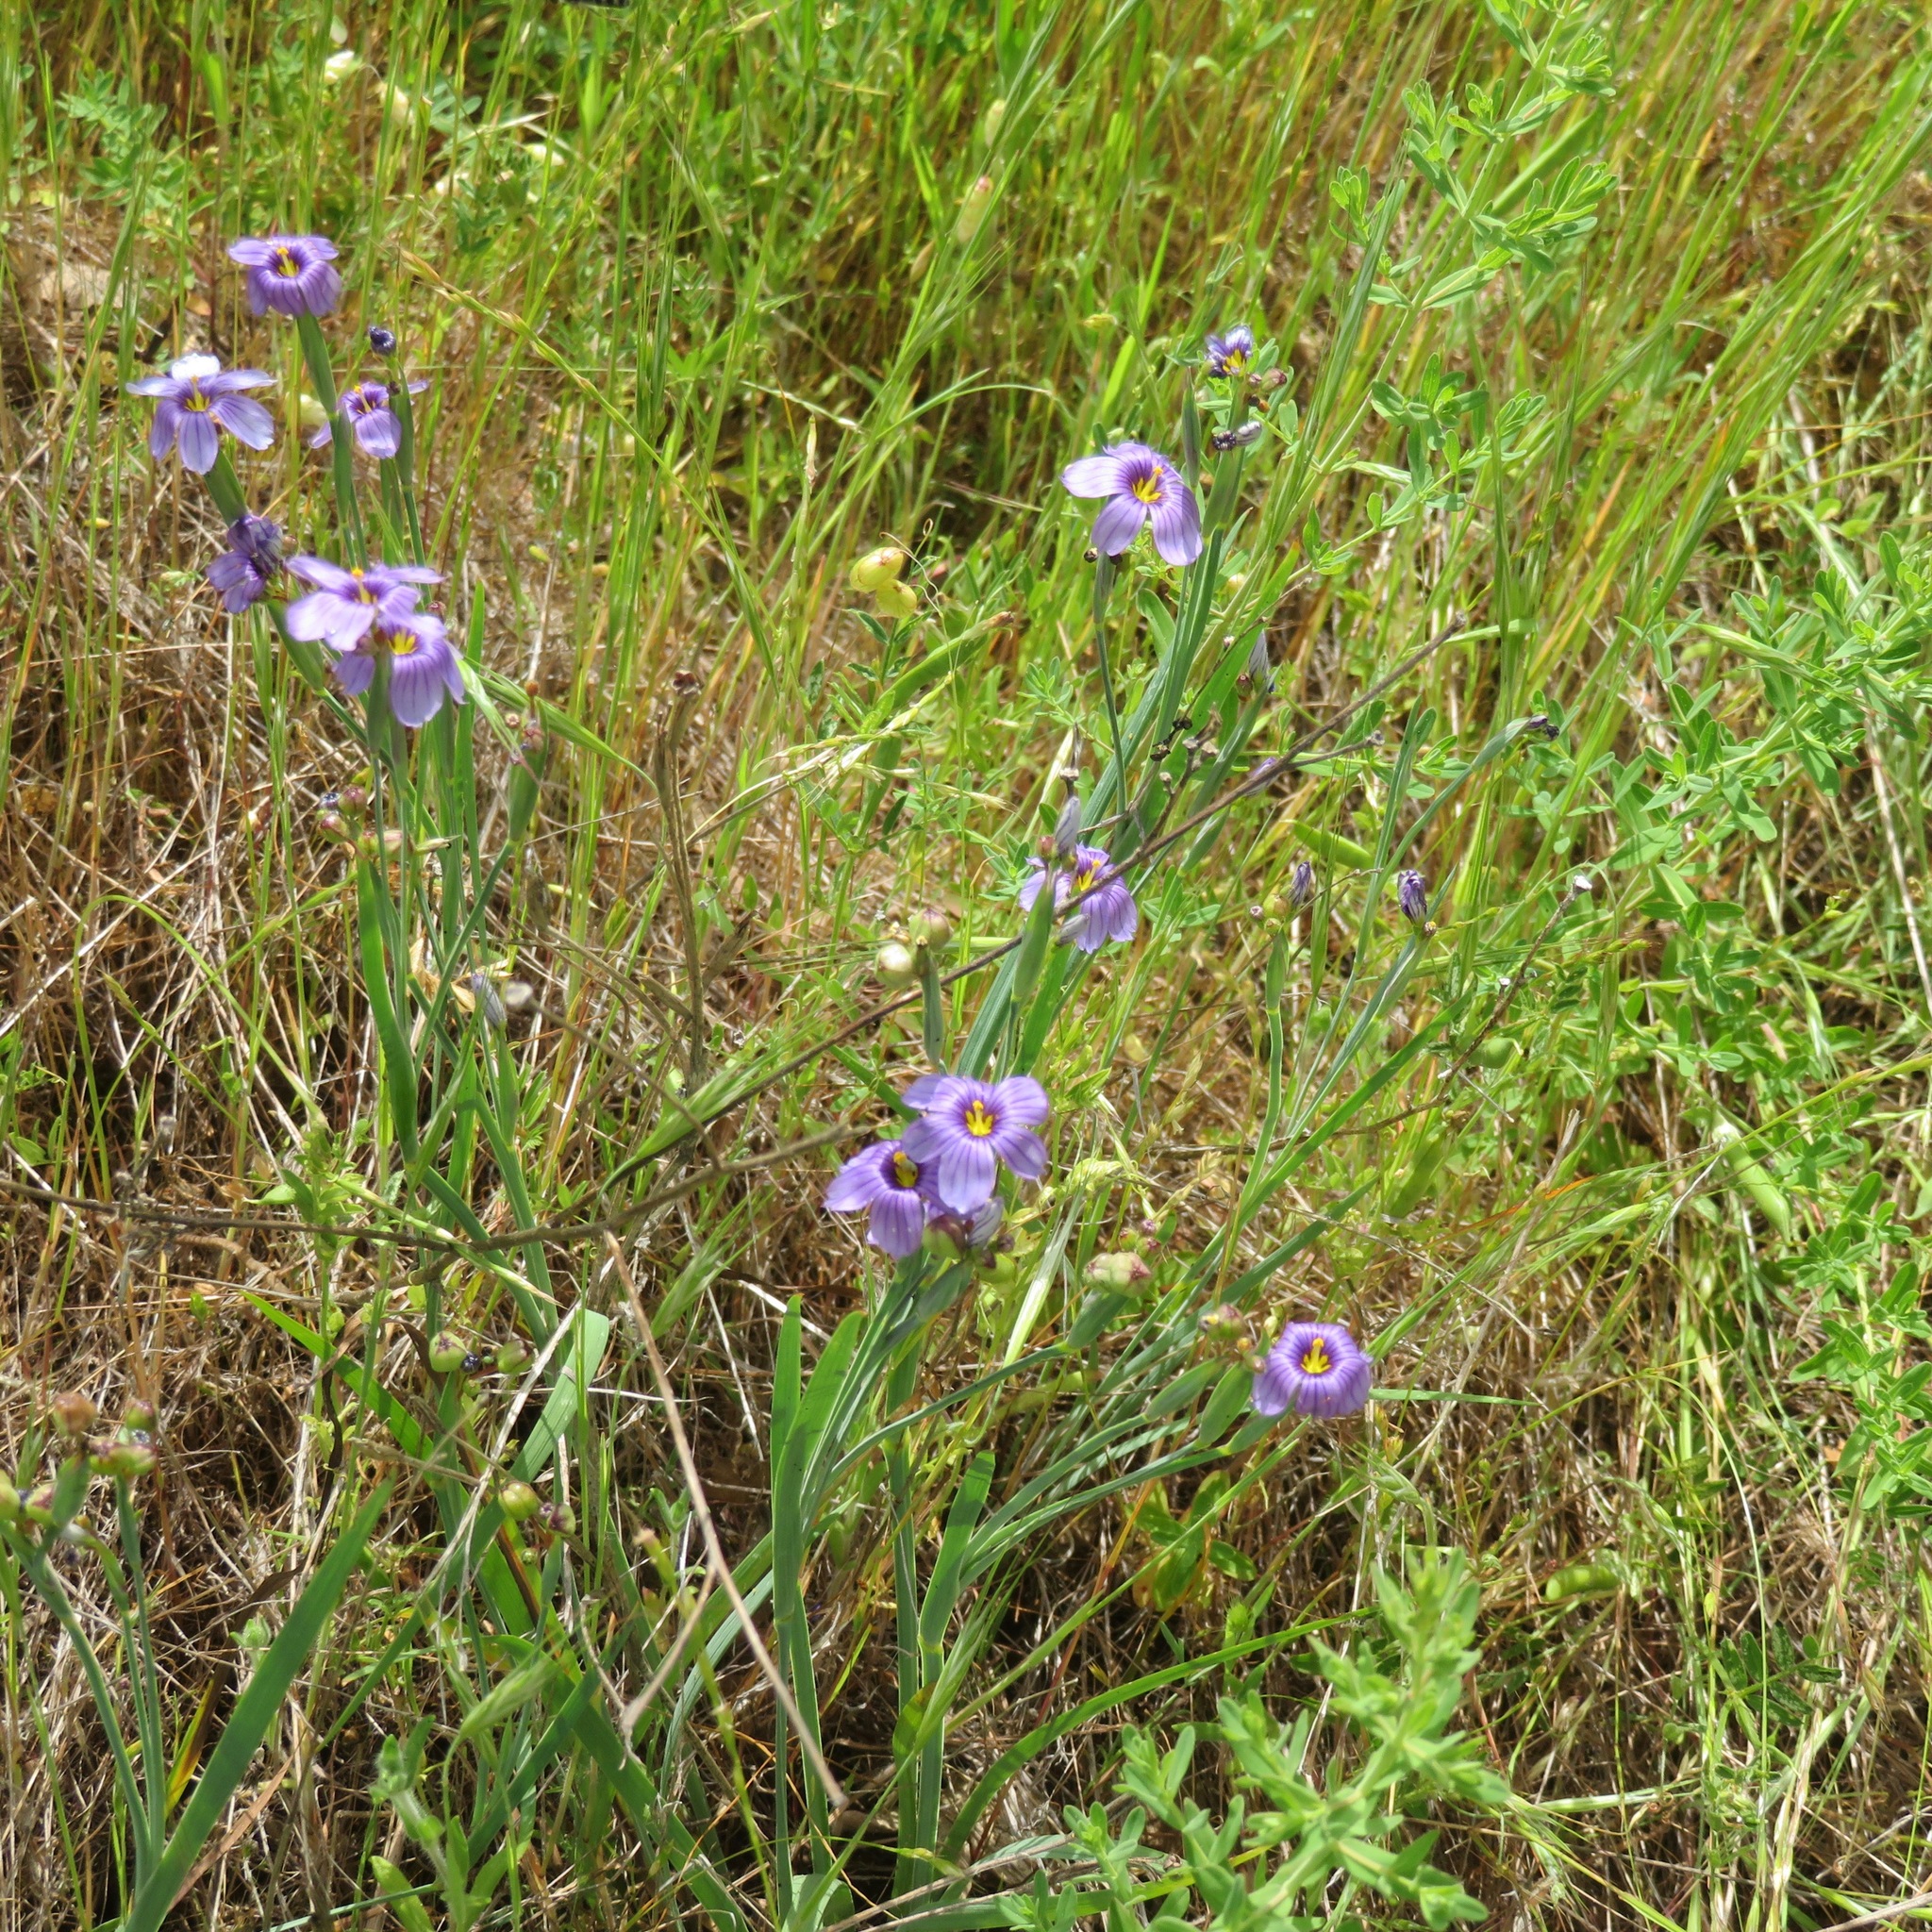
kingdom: Plantae
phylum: Tracheophyta
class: Liliopsida
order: Asparagales
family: Iridaceae
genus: Sisyrinchium
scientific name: Sisyrinchium bellum
